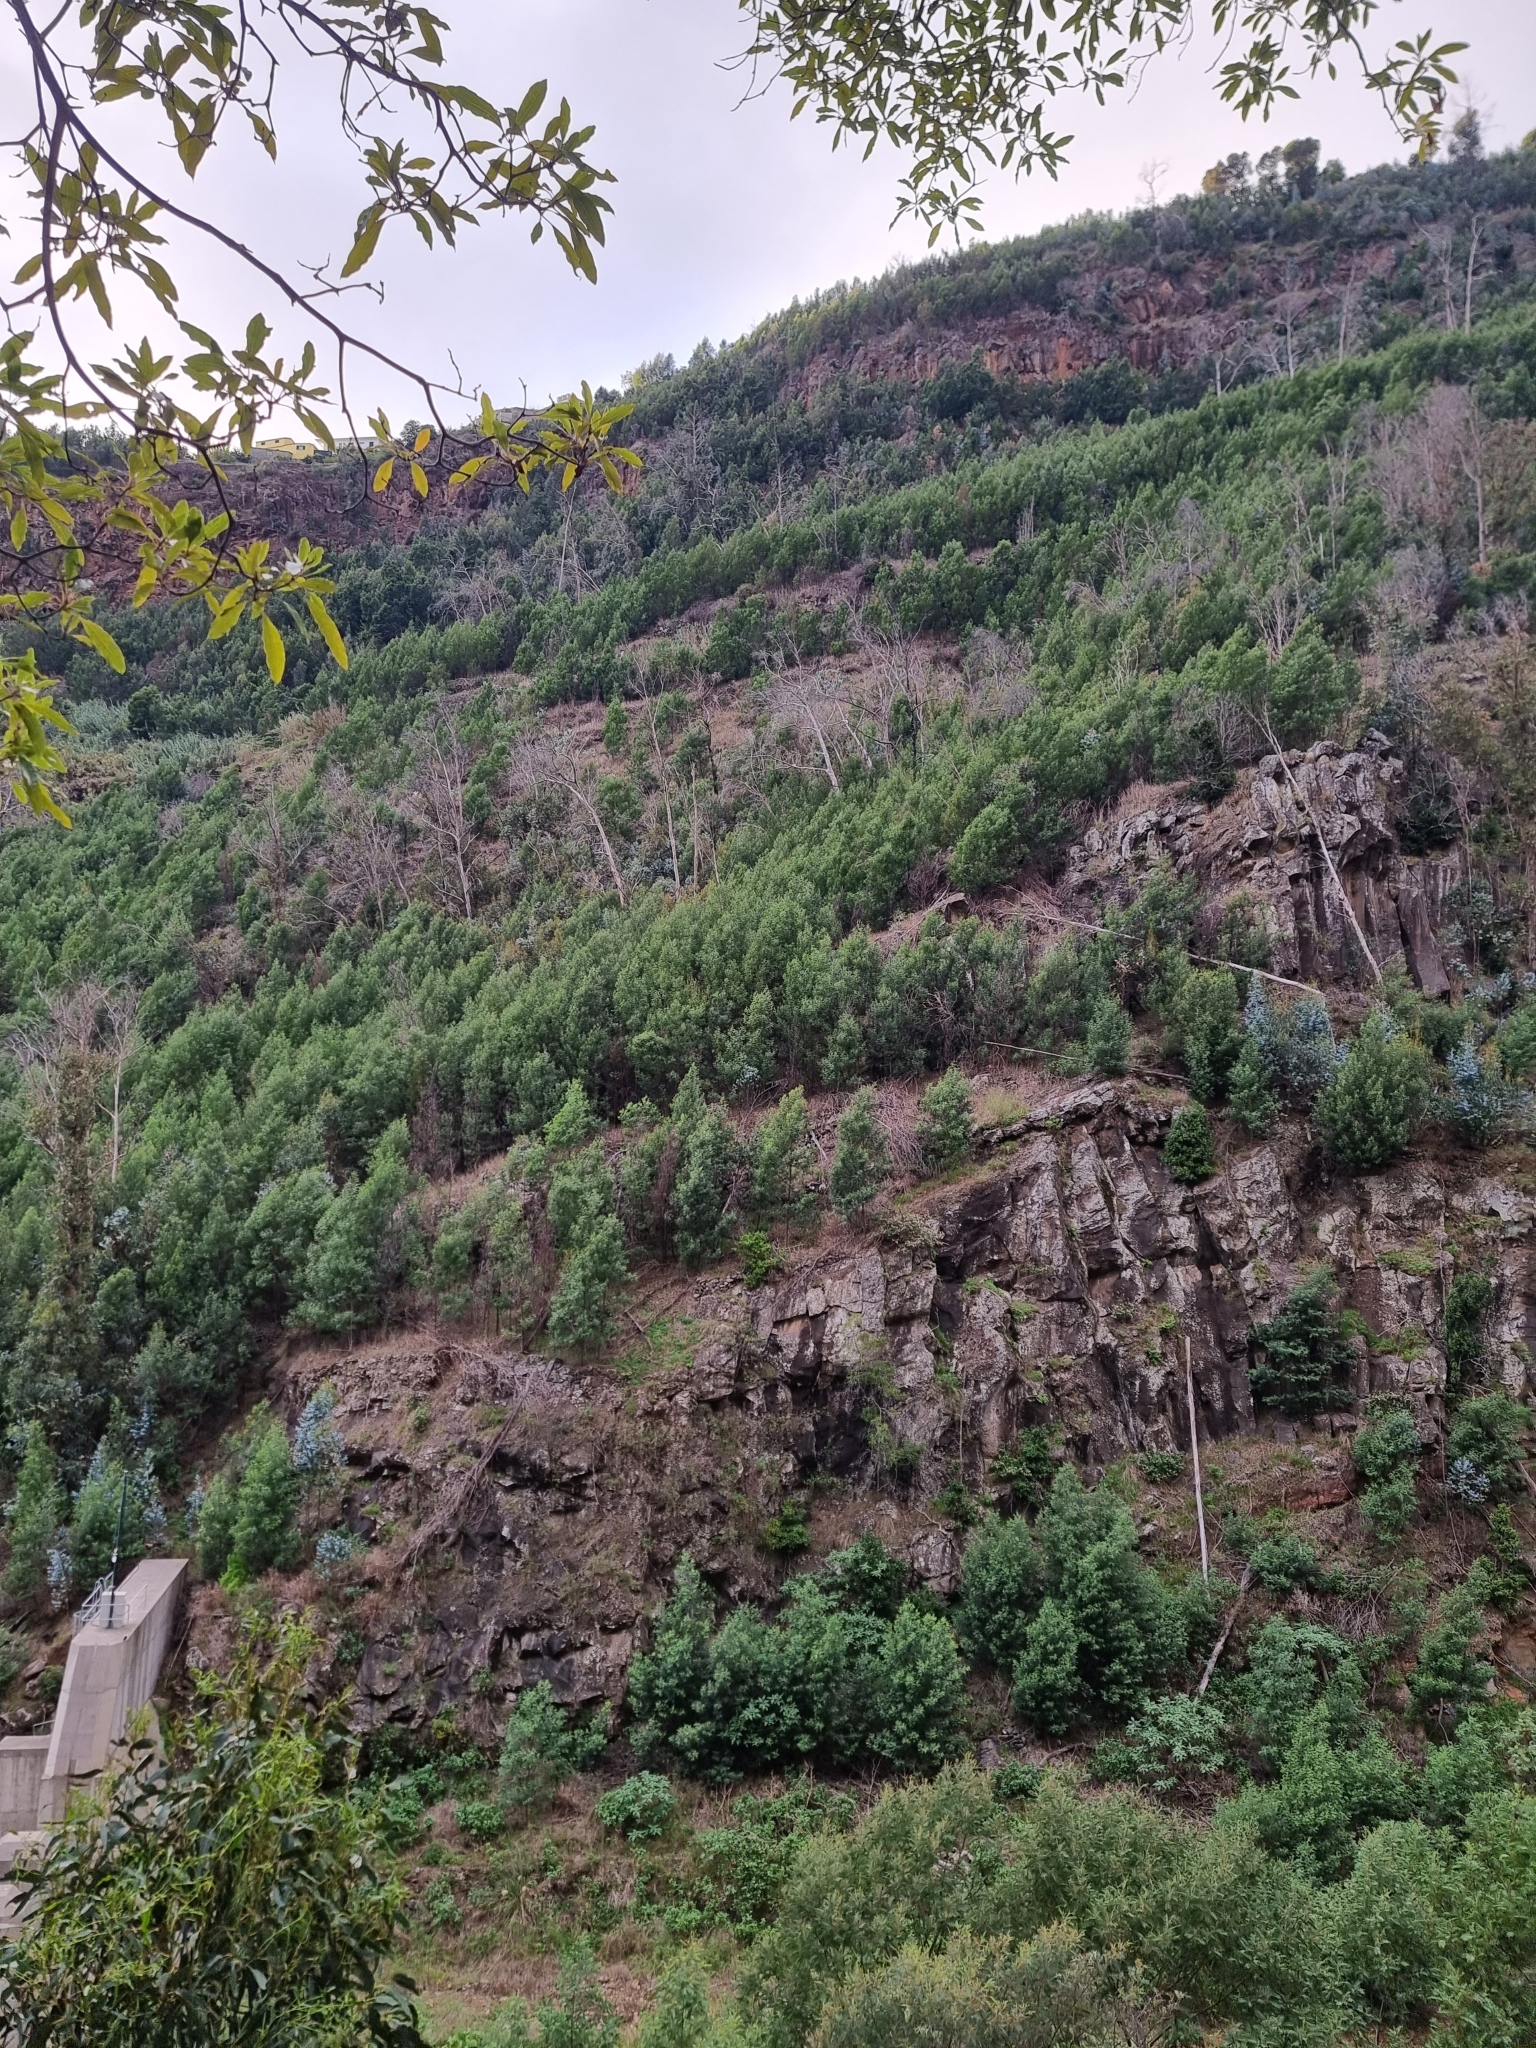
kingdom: Plantae
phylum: Tracheophyta
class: Magnoliopsida
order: Fabales
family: Fabaceae
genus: Acacia
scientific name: Acacia mearnsii
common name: Black wattle
